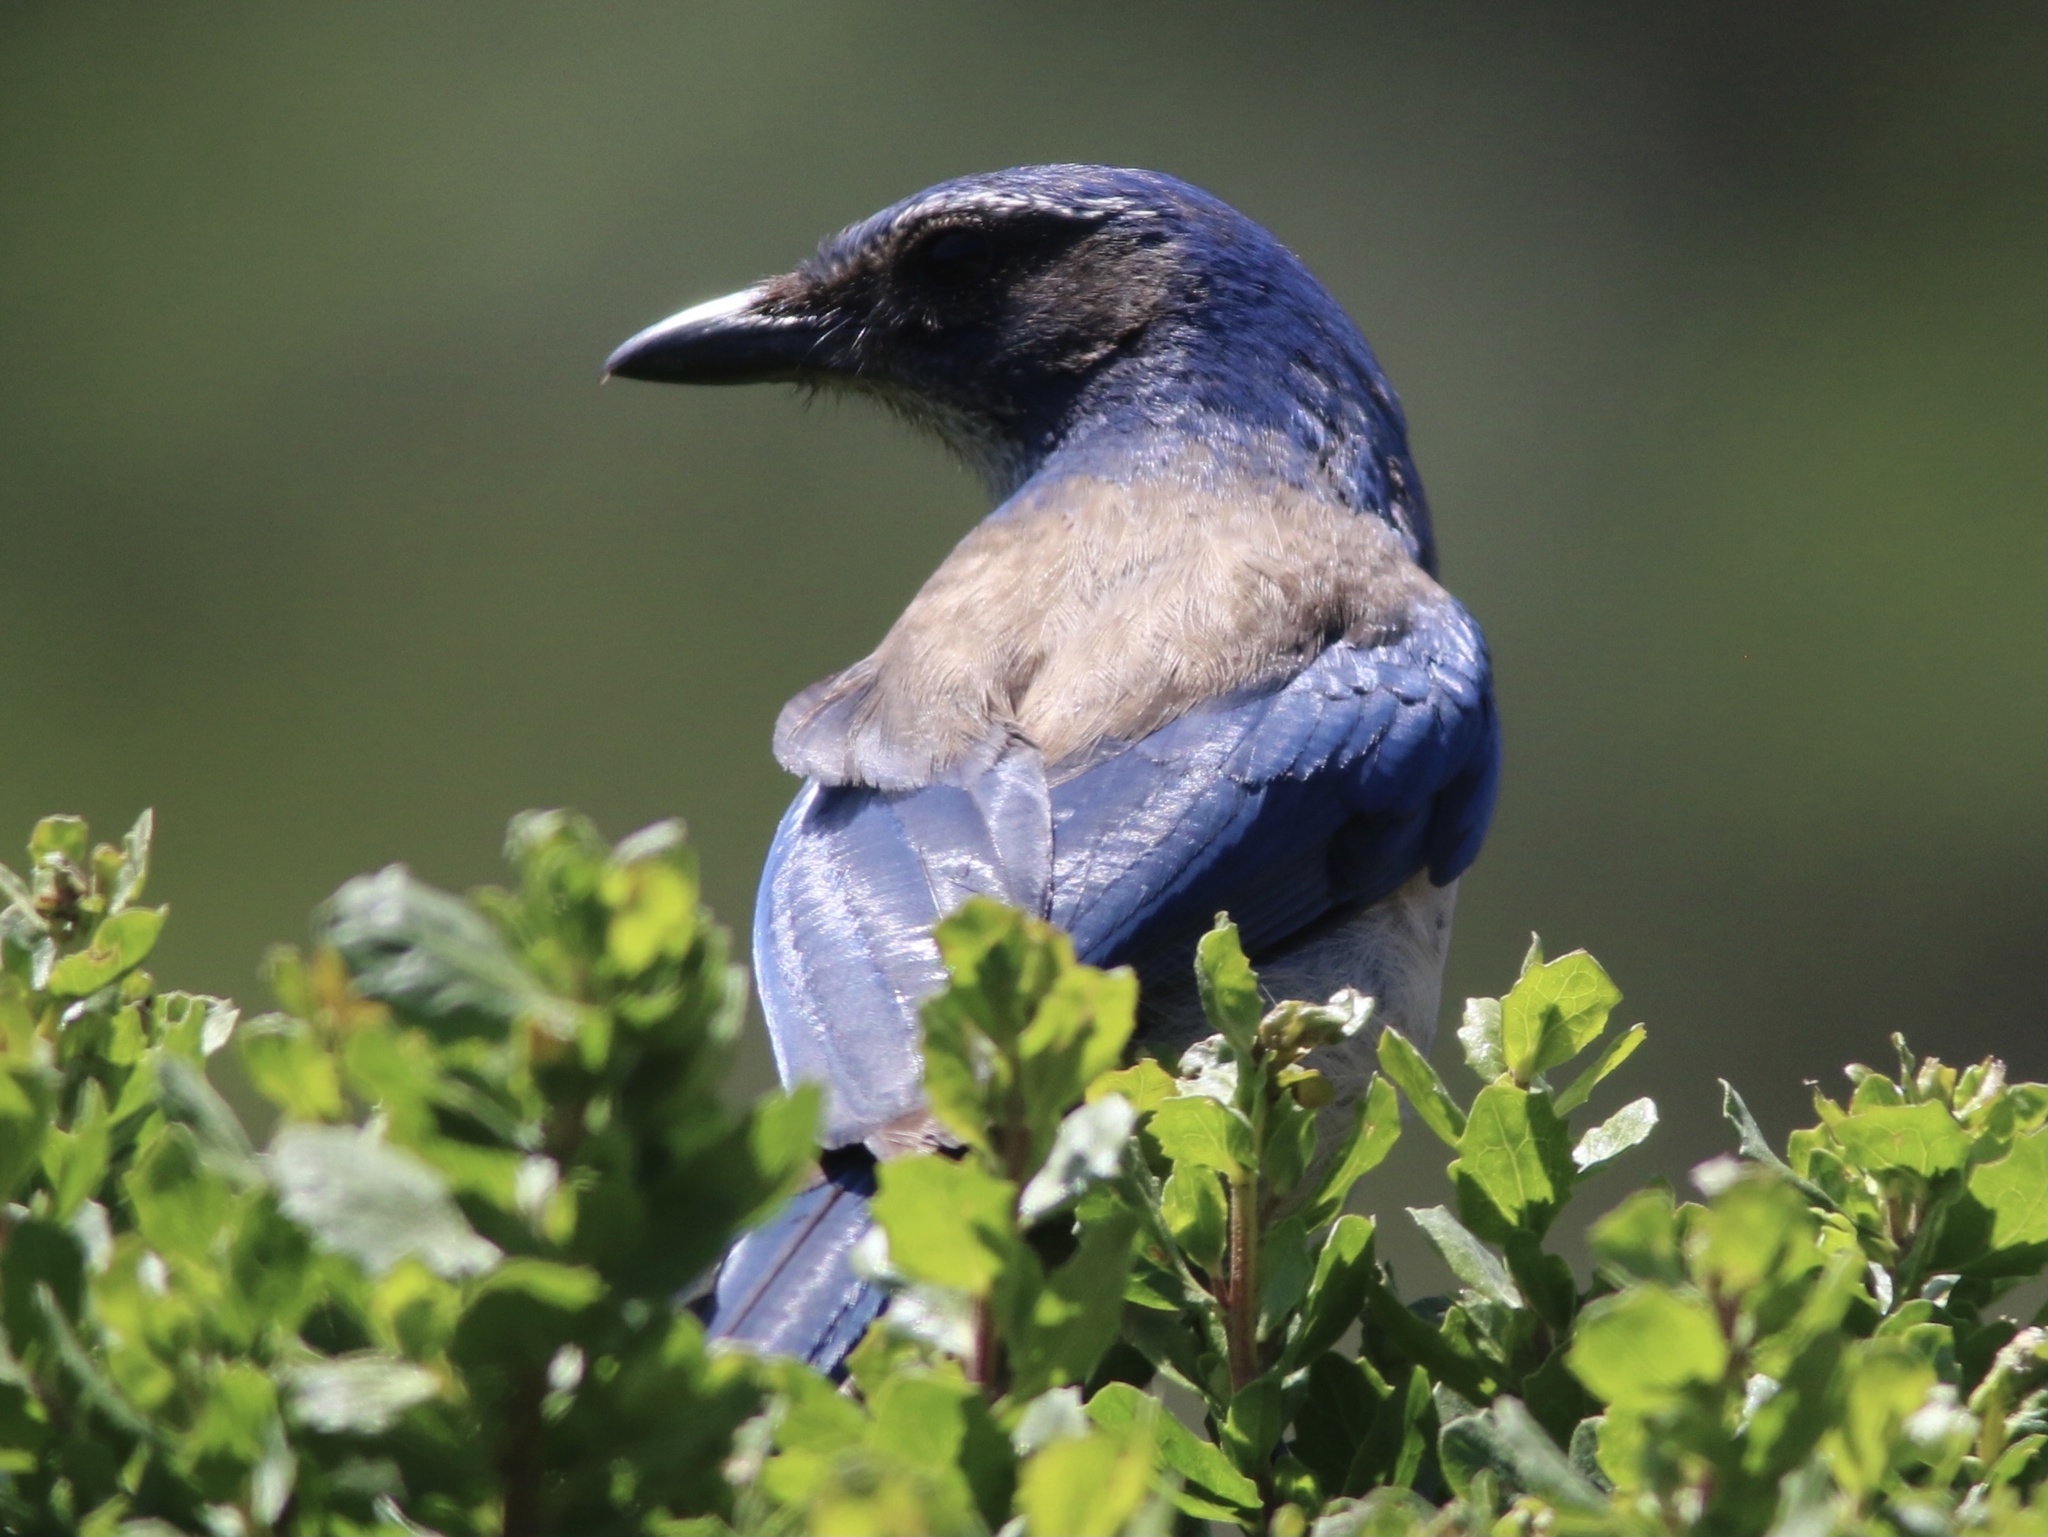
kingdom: Animalia
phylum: Chordata
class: Aves
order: Passeriformes
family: Corvidae
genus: Aphelocoma
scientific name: Aphelocoma californica
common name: California scrub-jay
